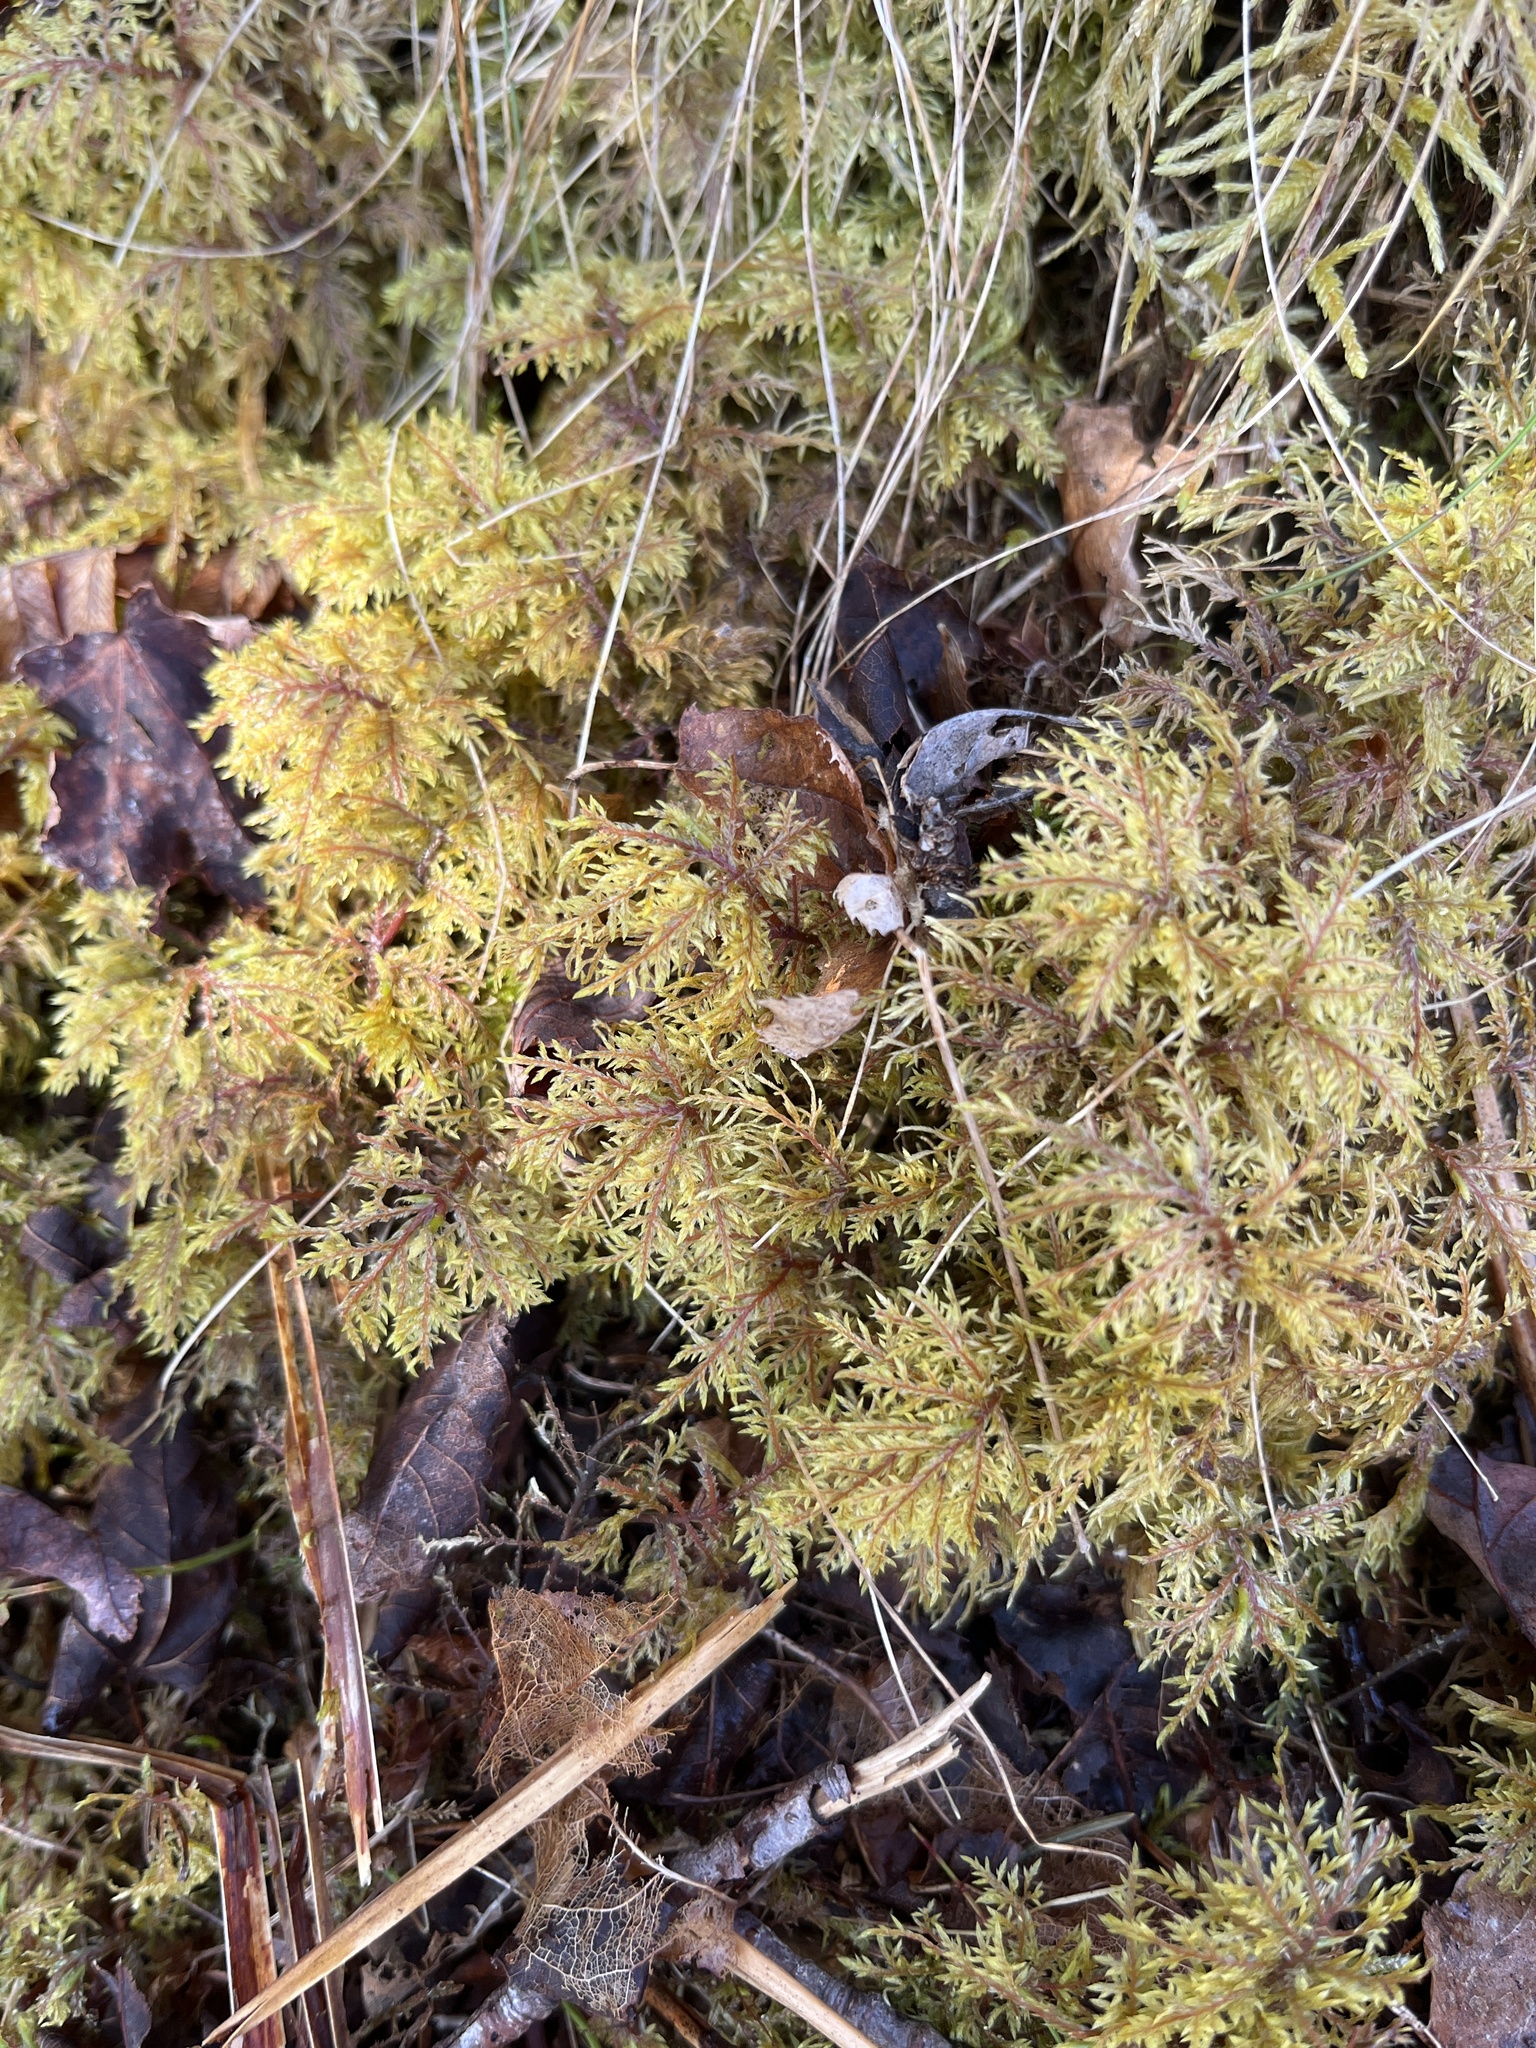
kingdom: Plantae
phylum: Bryophyta
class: Bryopsida
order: Hypnales
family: Hylocomiaceae
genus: Hylocomium
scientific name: Hylocomium splendens
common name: Stairstep moss
